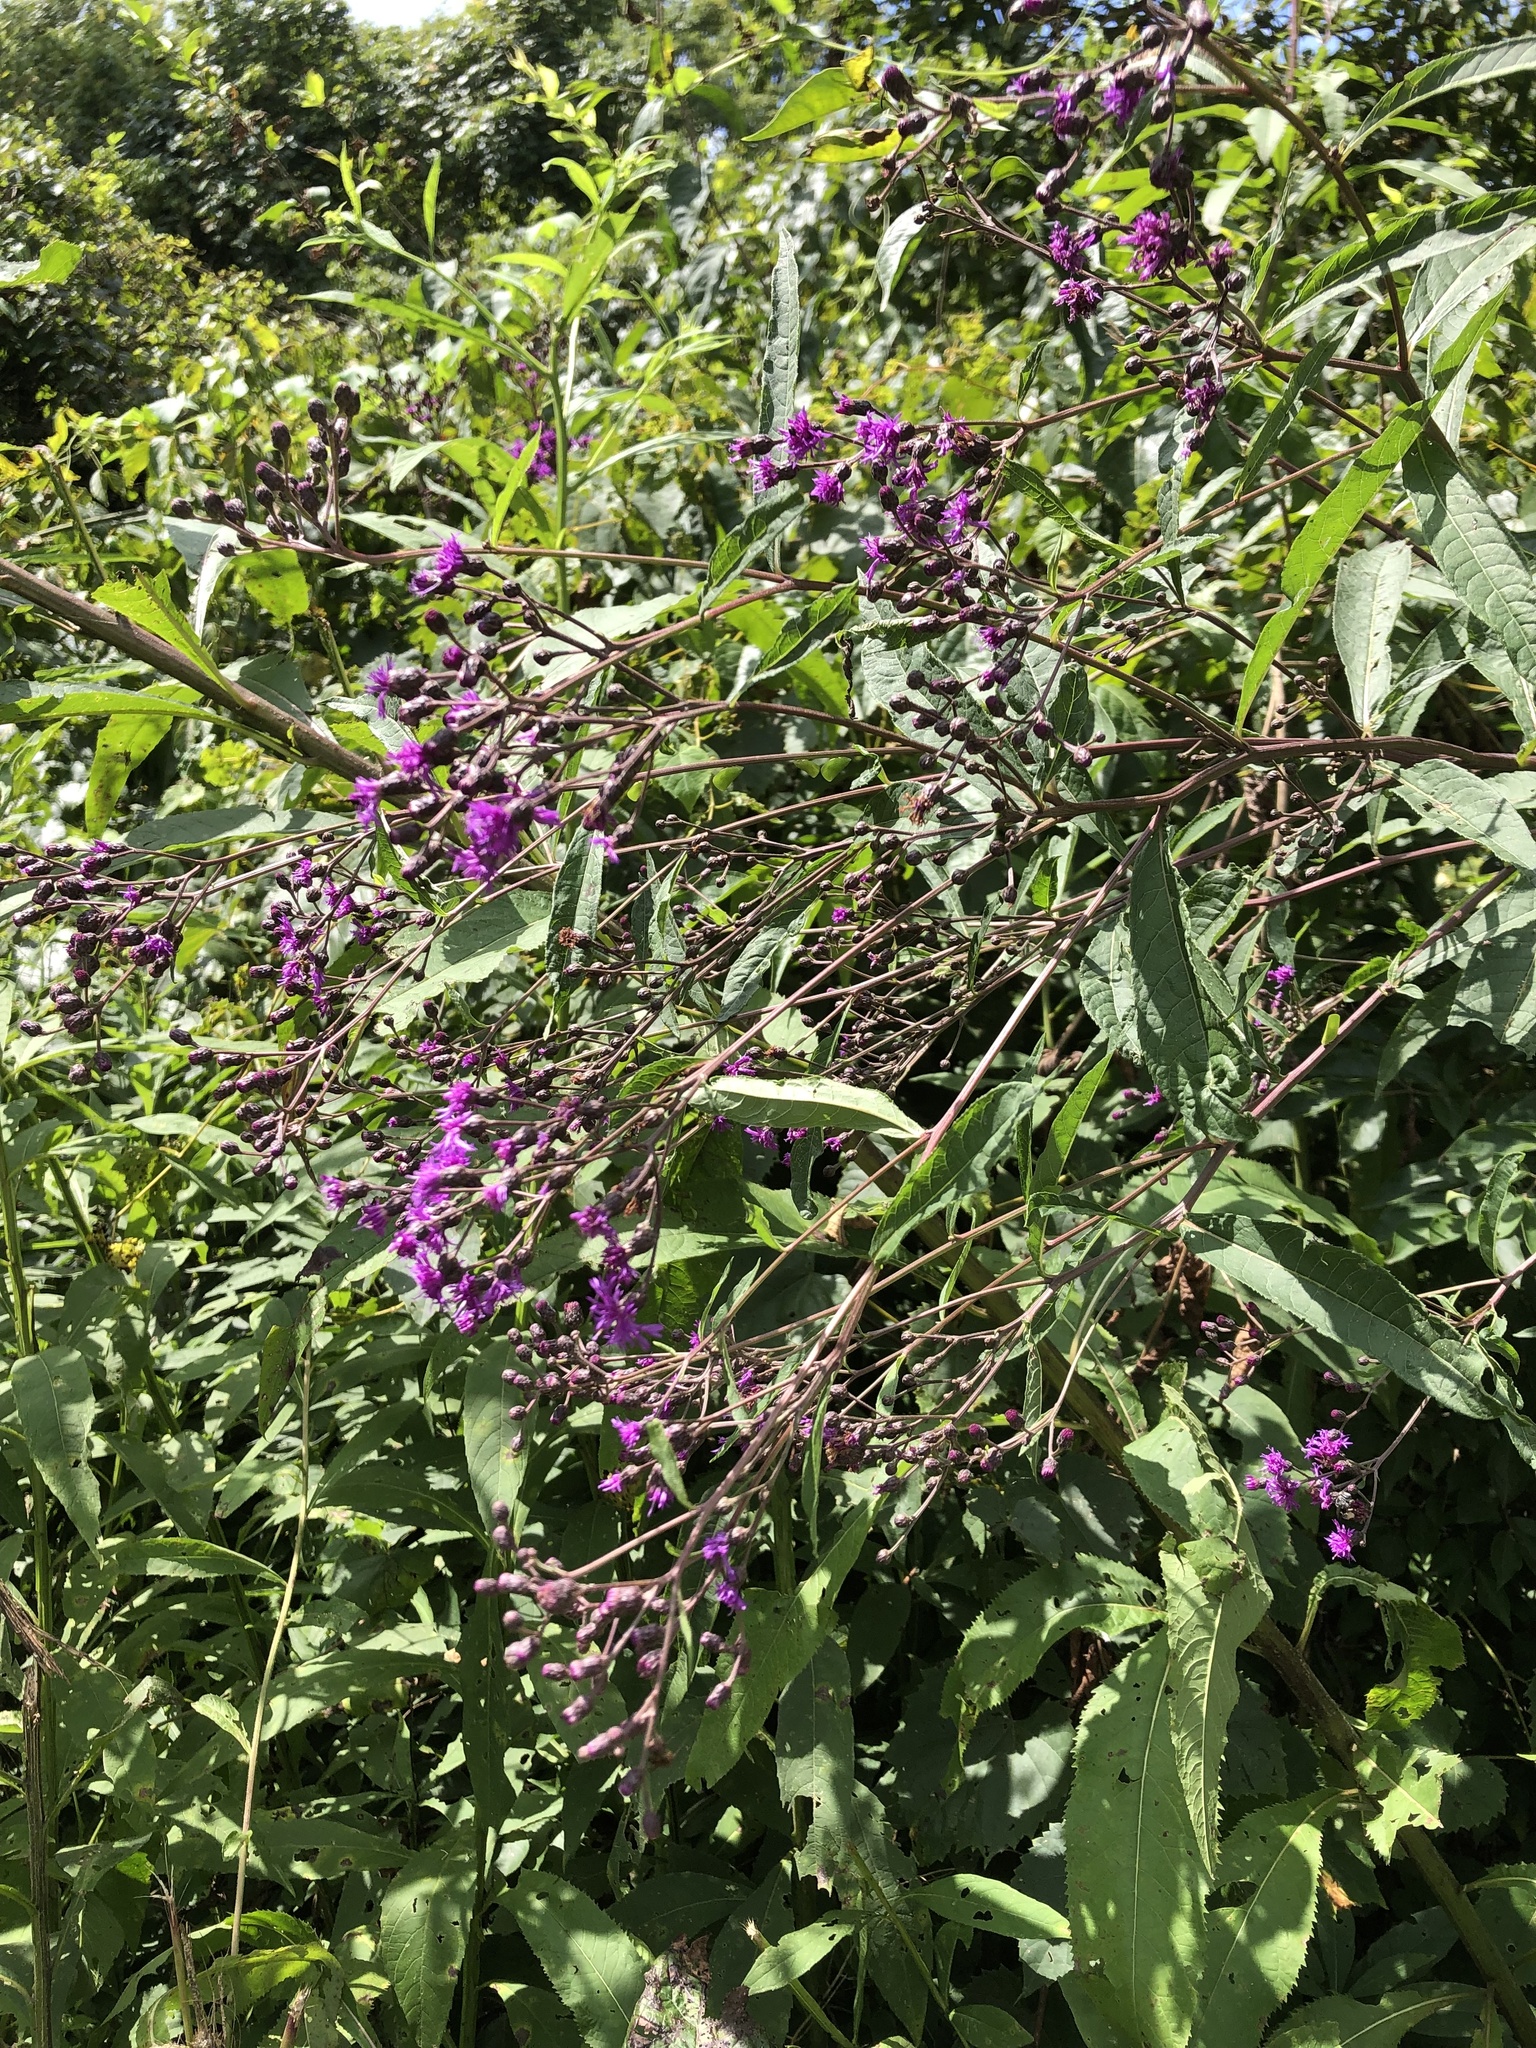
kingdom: Plantae
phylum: Tracheophyta
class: Magnoliopsida
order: Asterales
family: Asteraceae
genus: Vernonia
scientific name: Vernonia gigantea
